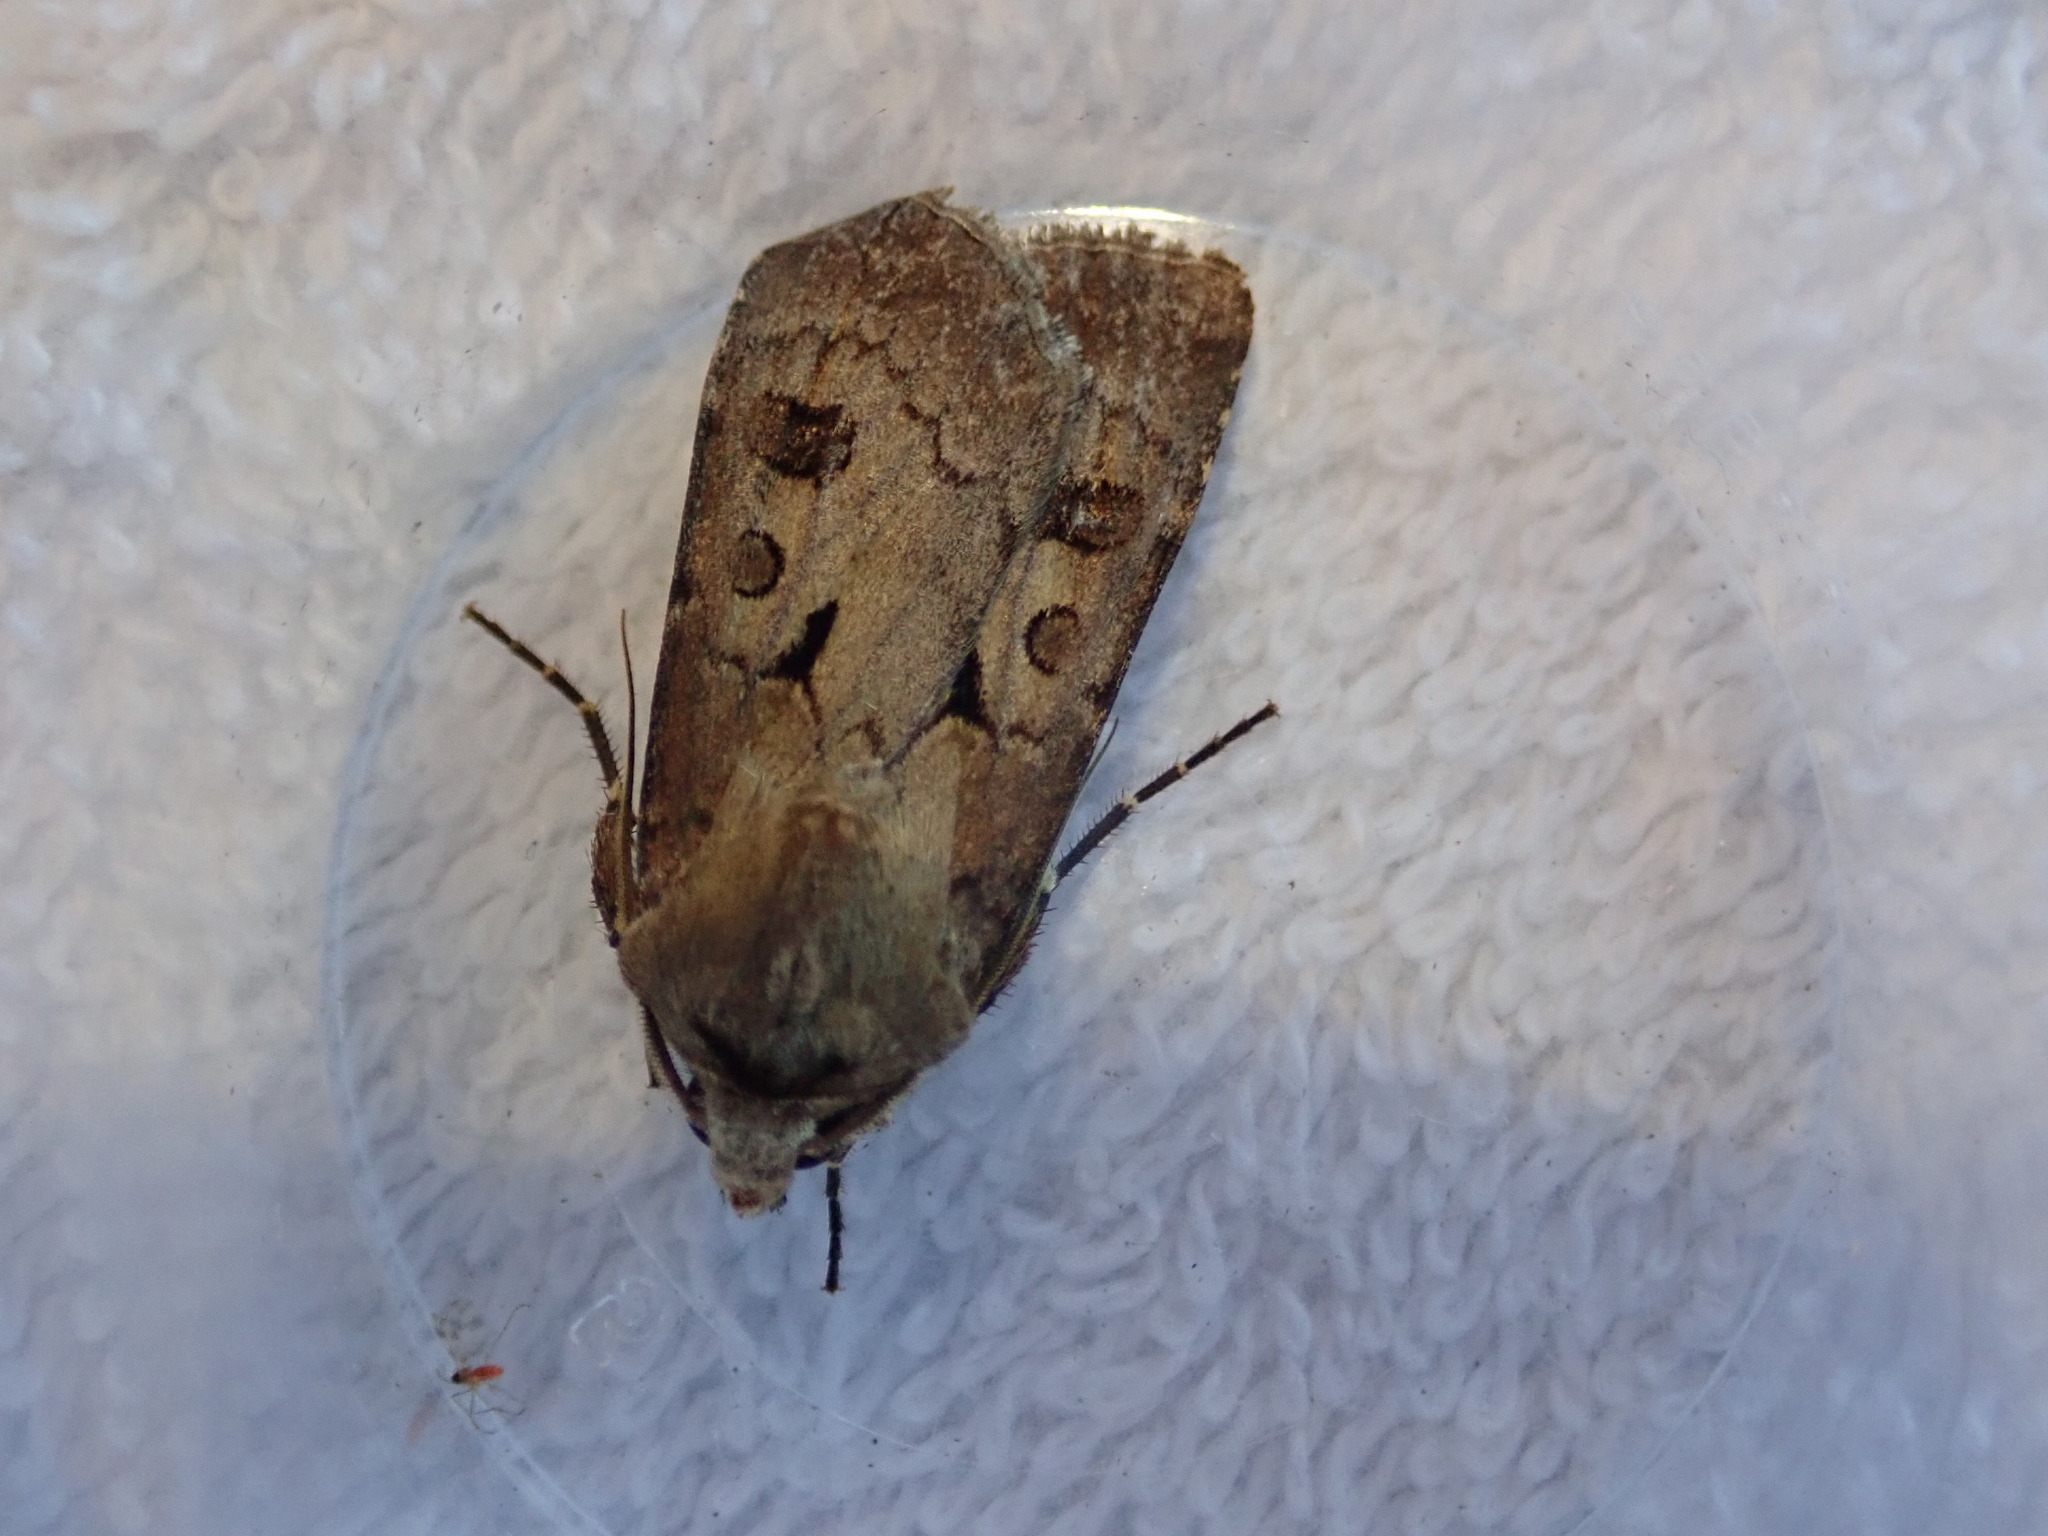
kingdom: Animalia
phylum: Arthropoda
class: Insecta
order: Lepidoptera
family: Noctuidae
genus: Agrotis
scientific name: Agrotis exclamationis
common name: Heart and dart
